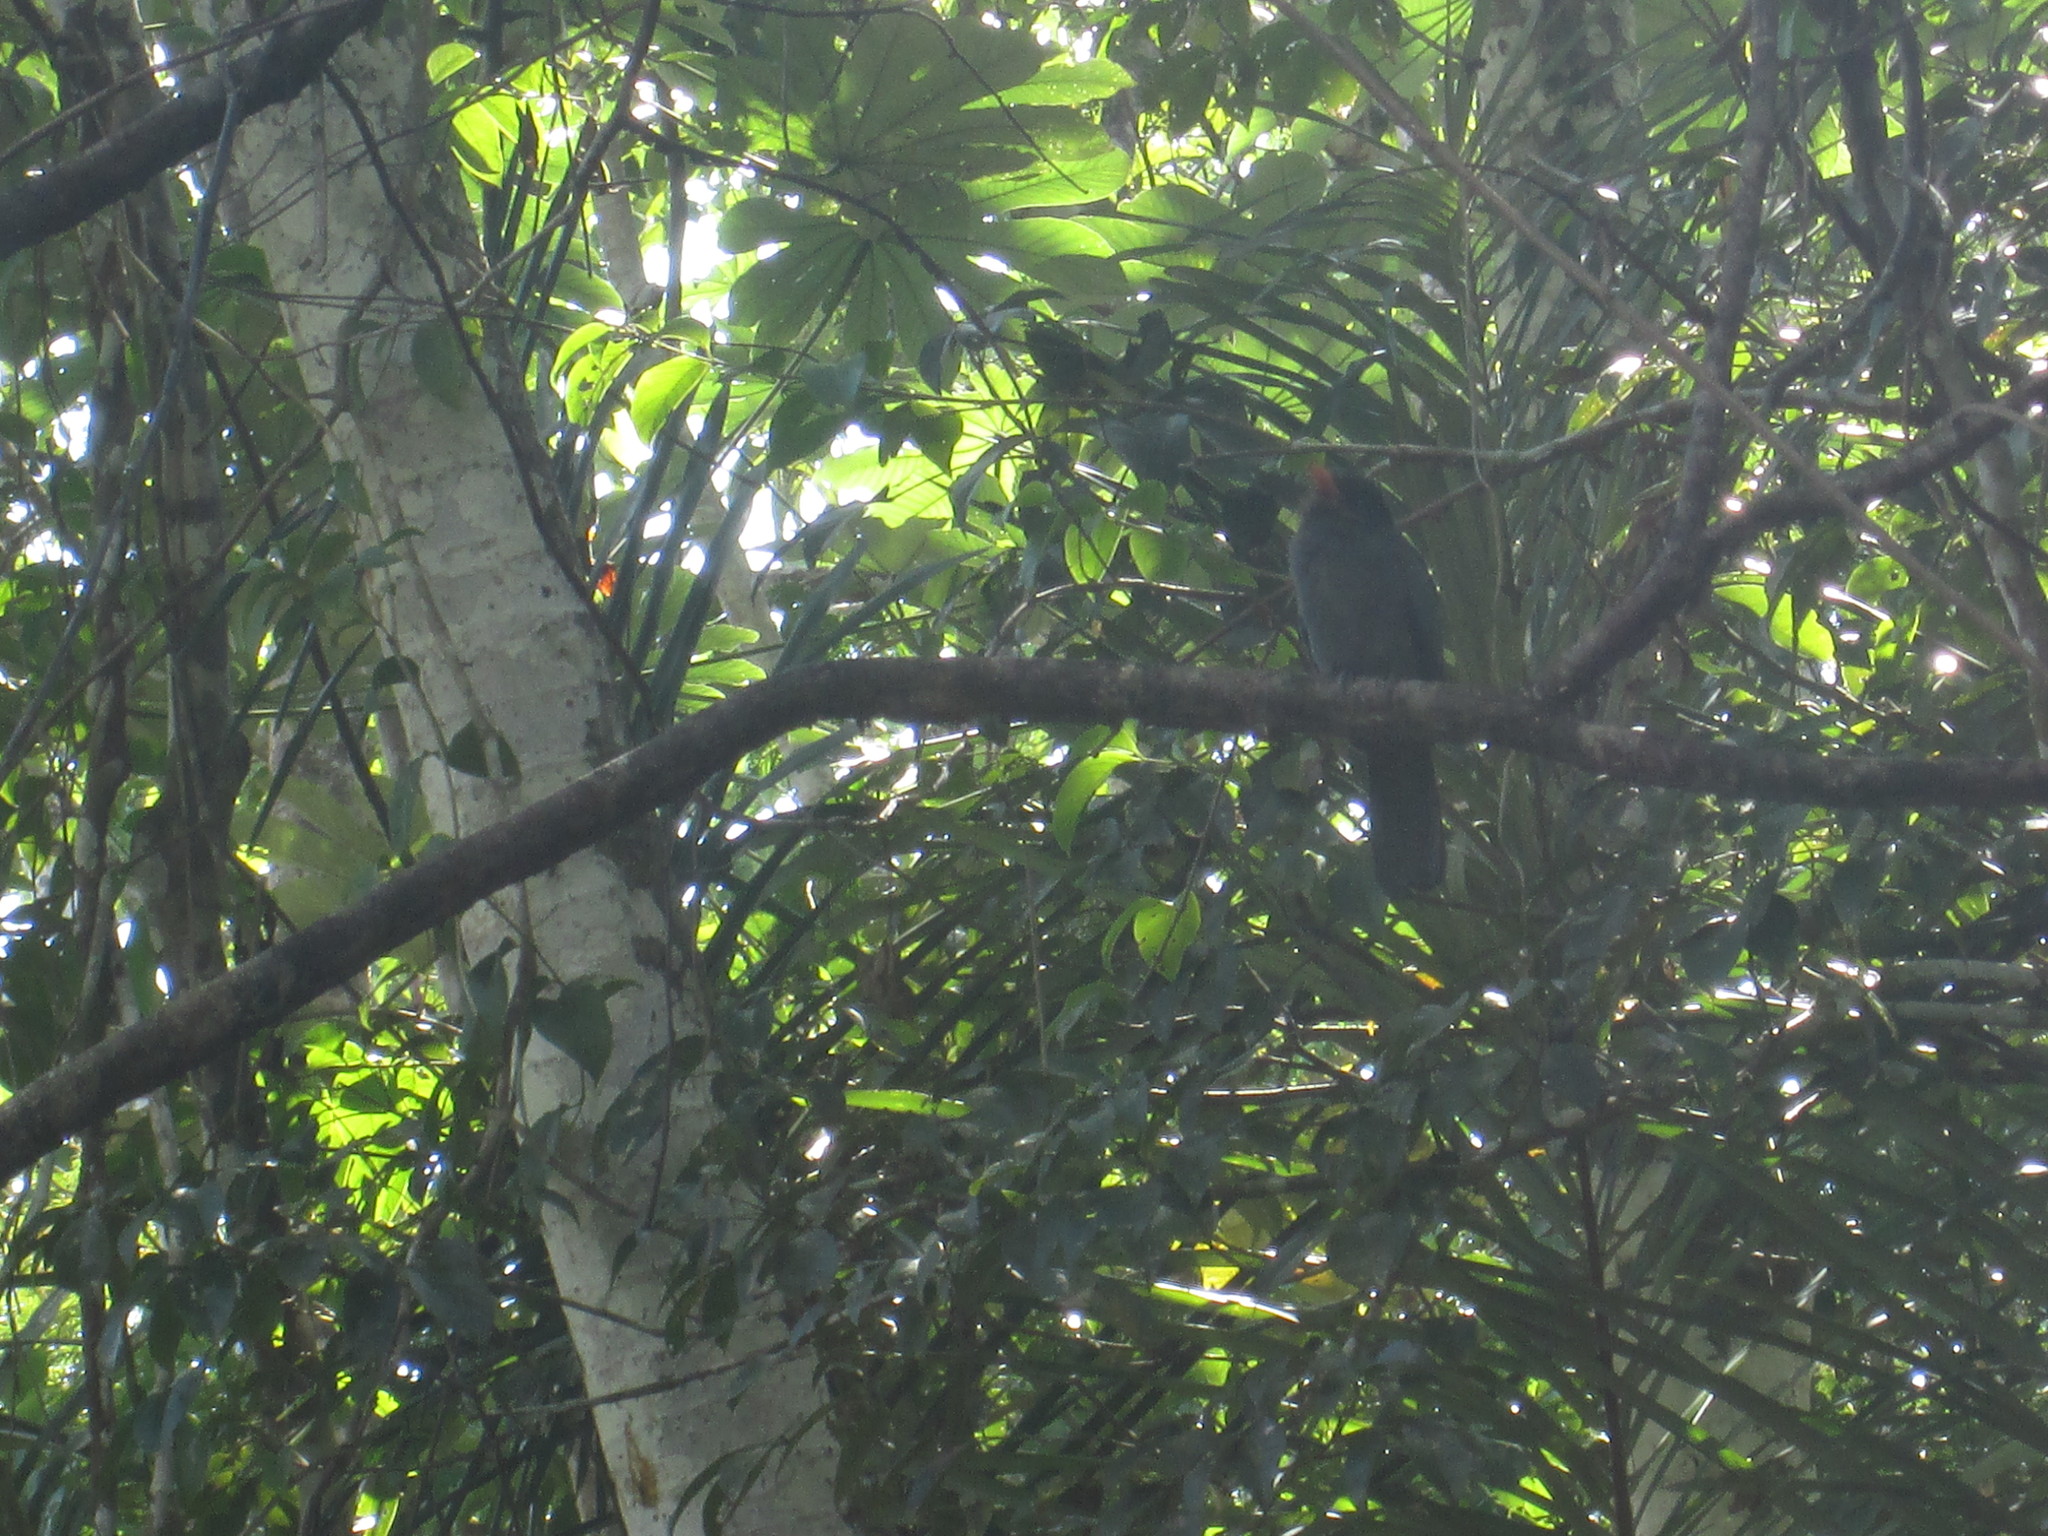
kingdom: Animalia
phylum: Chordata
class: Aves
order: Piciformes
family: Bucconidae
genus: Monasa
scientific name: Monasa nigrifrons
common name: Black-fronted nunbird
